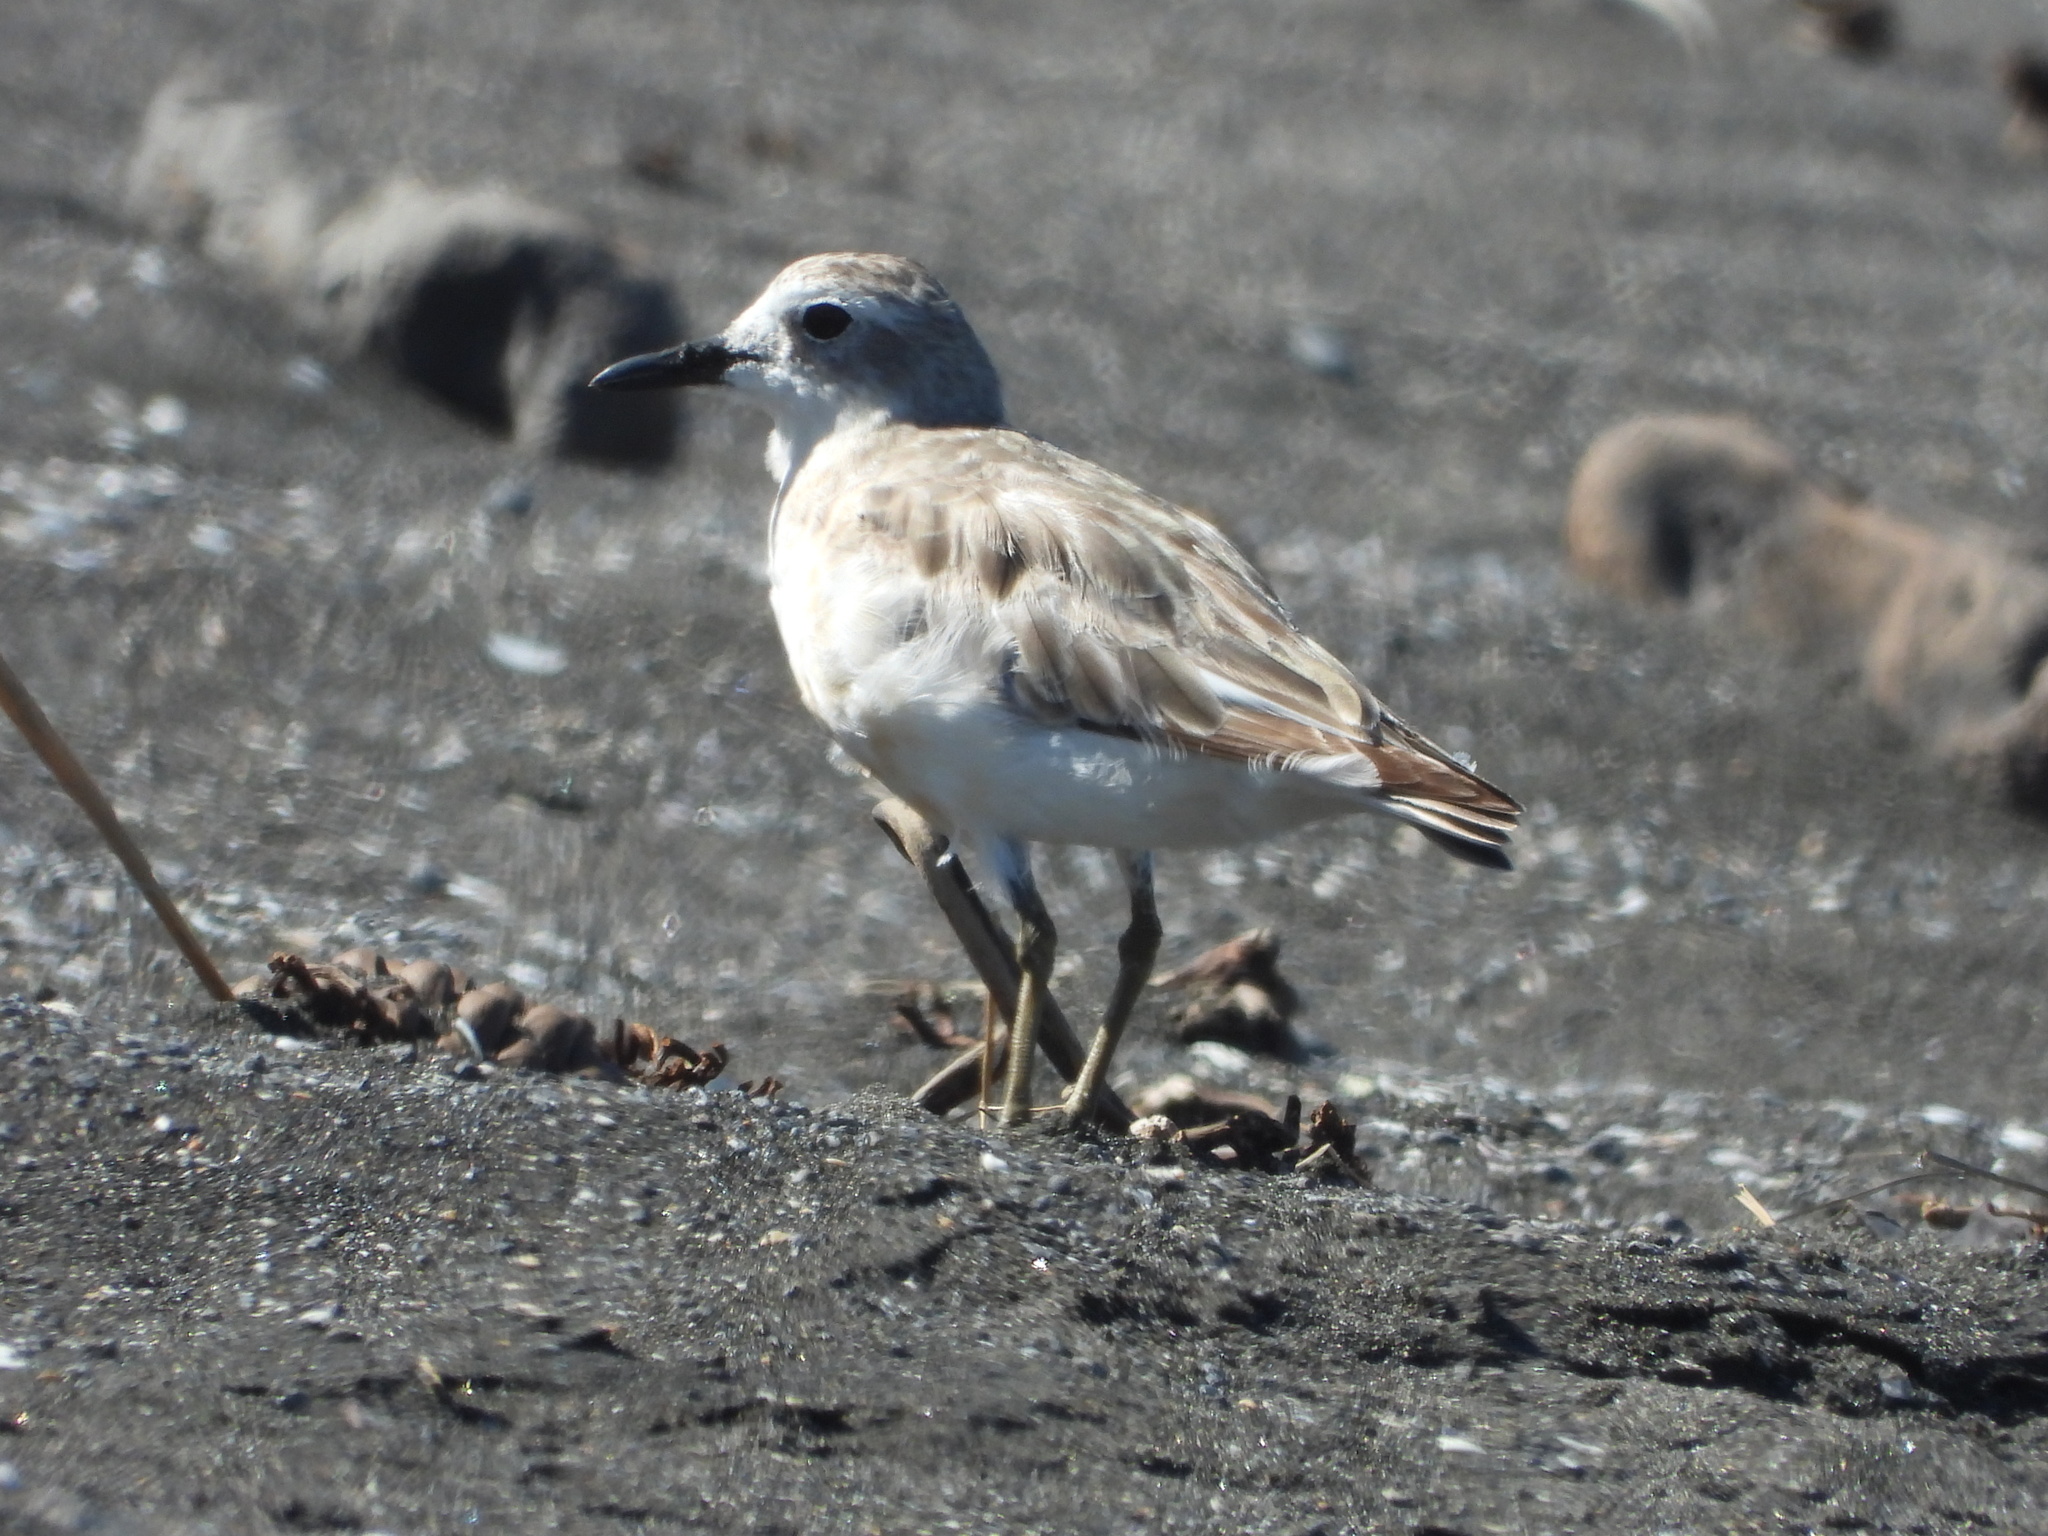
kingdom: Animalia
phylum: Chordata
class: Aves
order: Charadriiformes
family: Charadriidae
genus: Anarhynchus
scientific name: Anarhynchus
